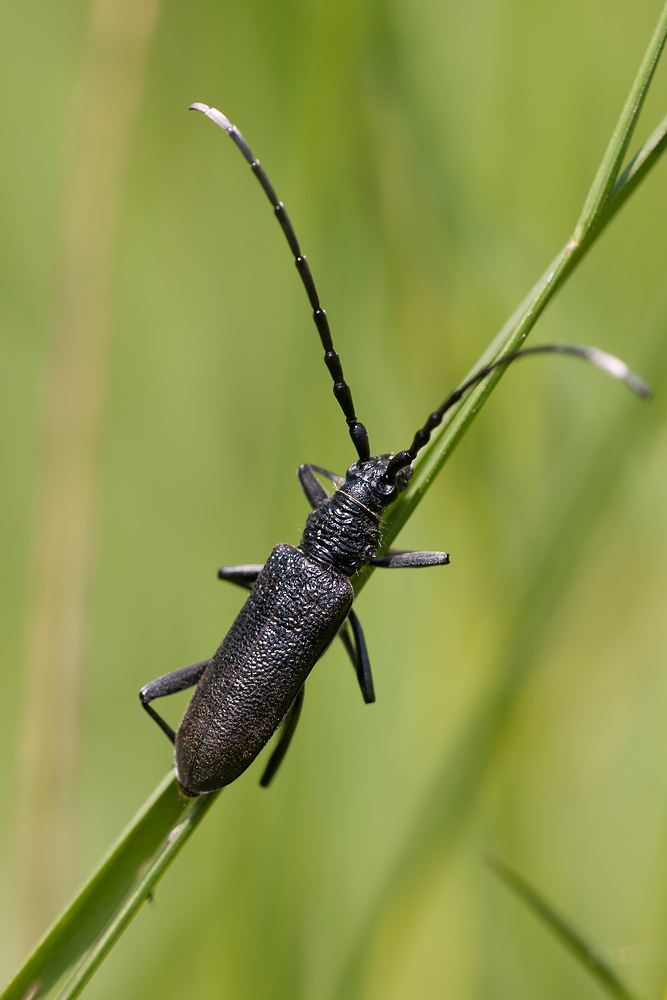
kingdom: Animalia
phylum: Arthropoda
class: Insecta
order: Coleoptera
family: Cerambycidae
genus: Cerambyx
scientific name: Cerambyx scopolii
